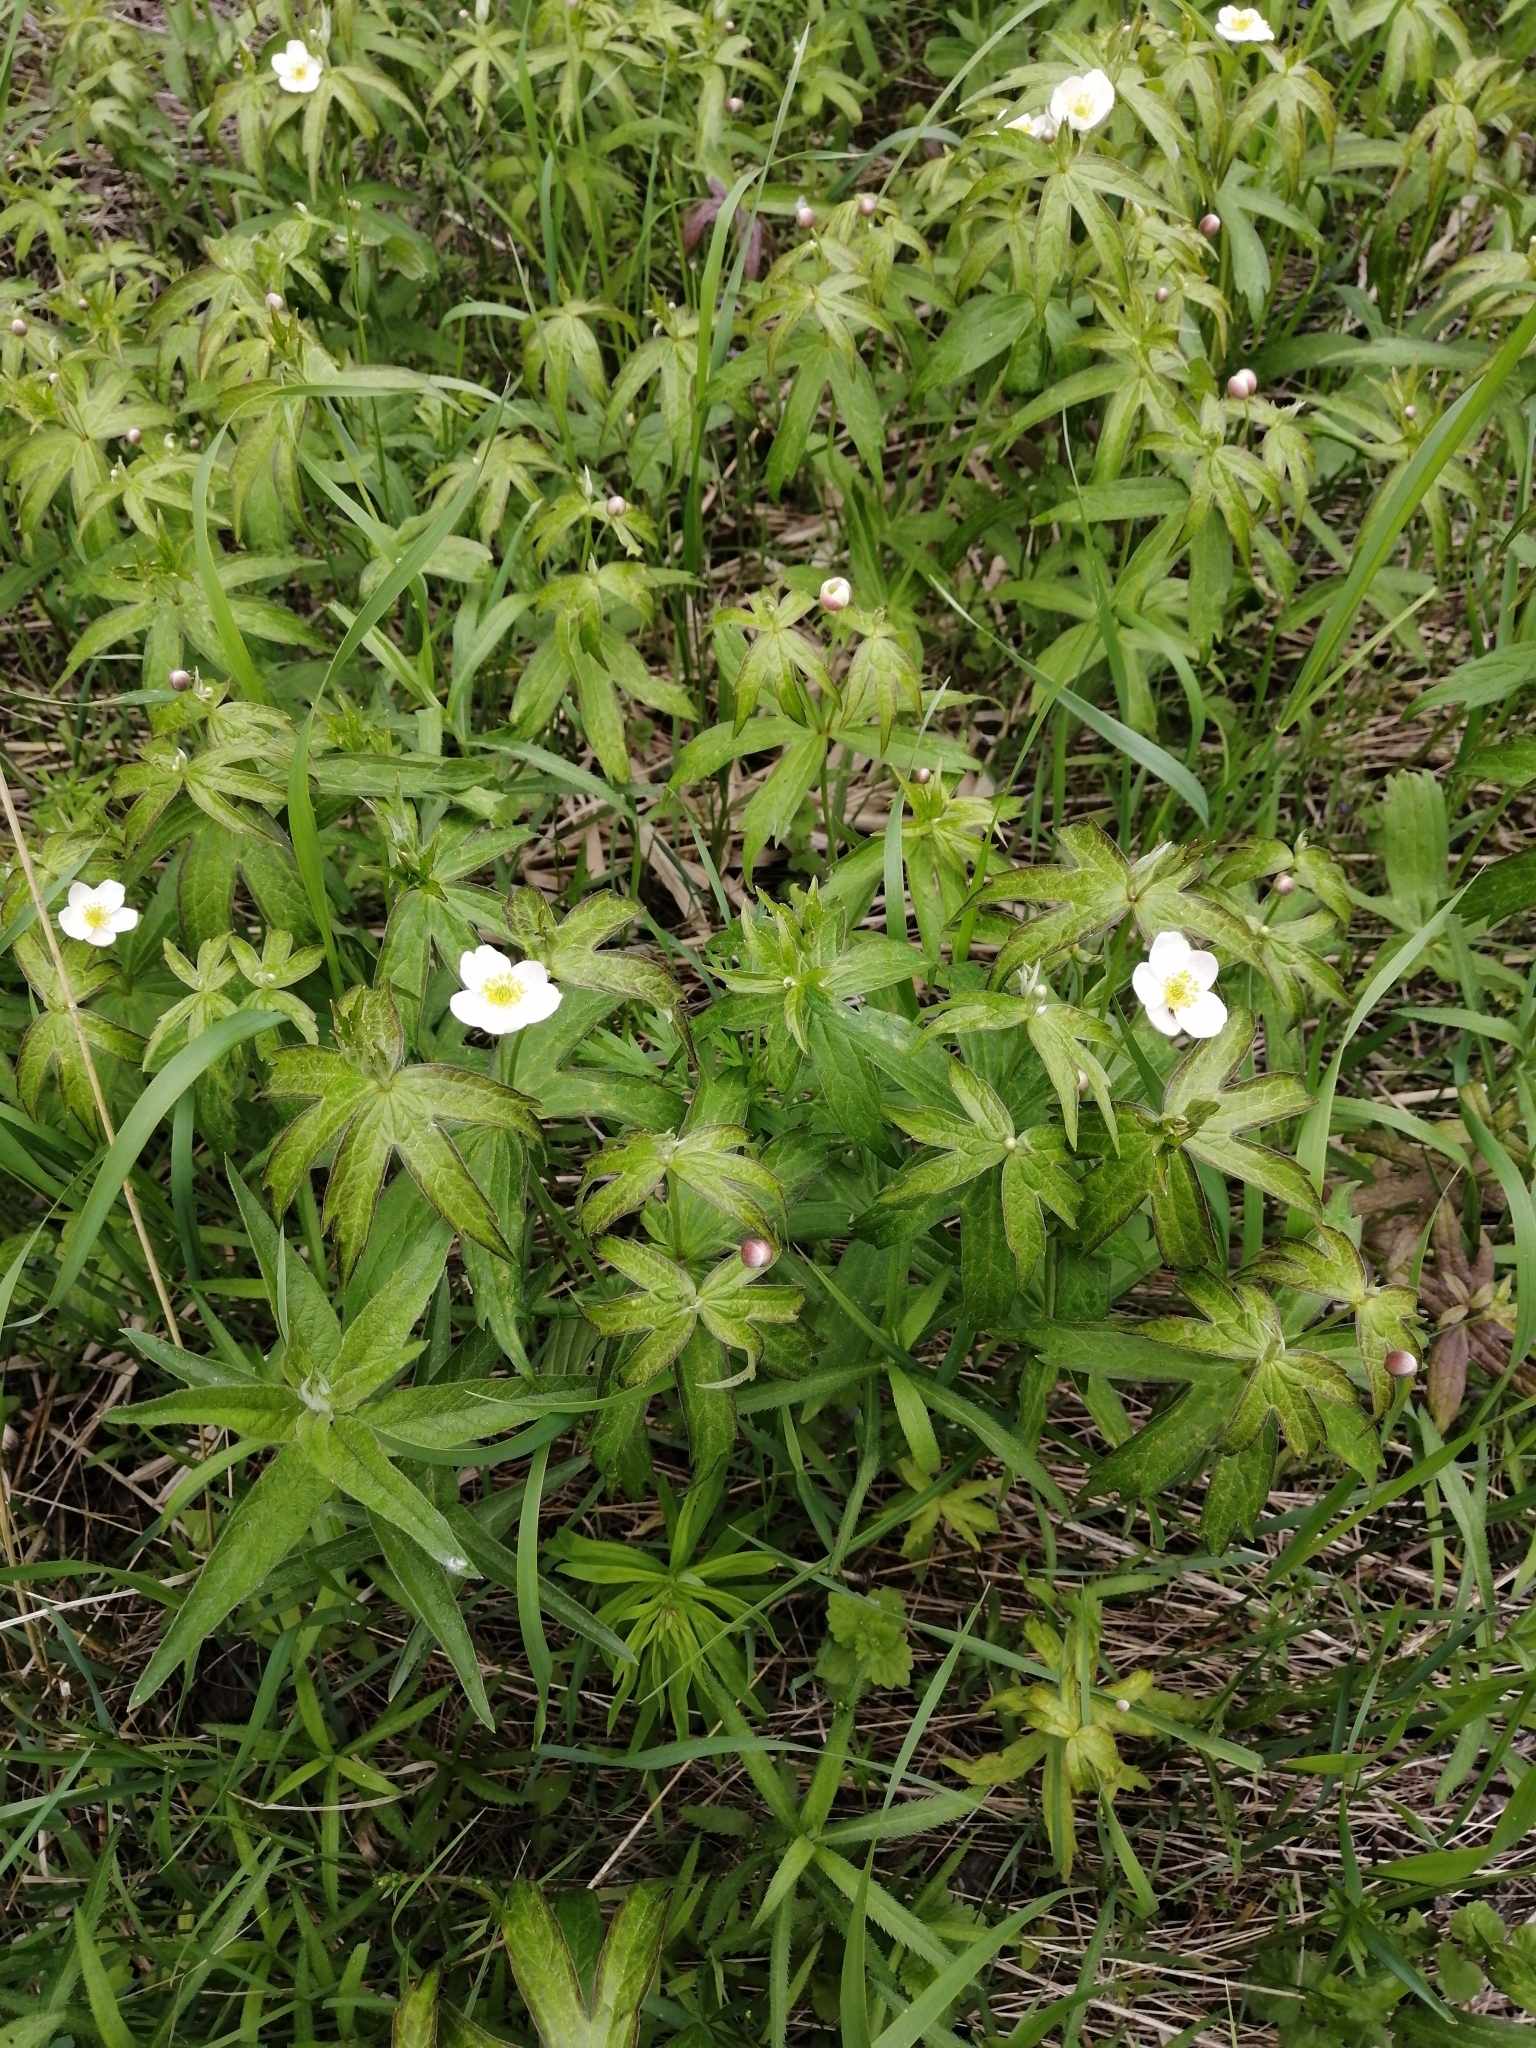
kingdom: Plantae
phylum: Tracheophyta
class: Magnoliopsida
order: Ranunculales
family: Ranunculaceae
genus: Anemonastrum
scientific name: Anemonastrum dichotomum
